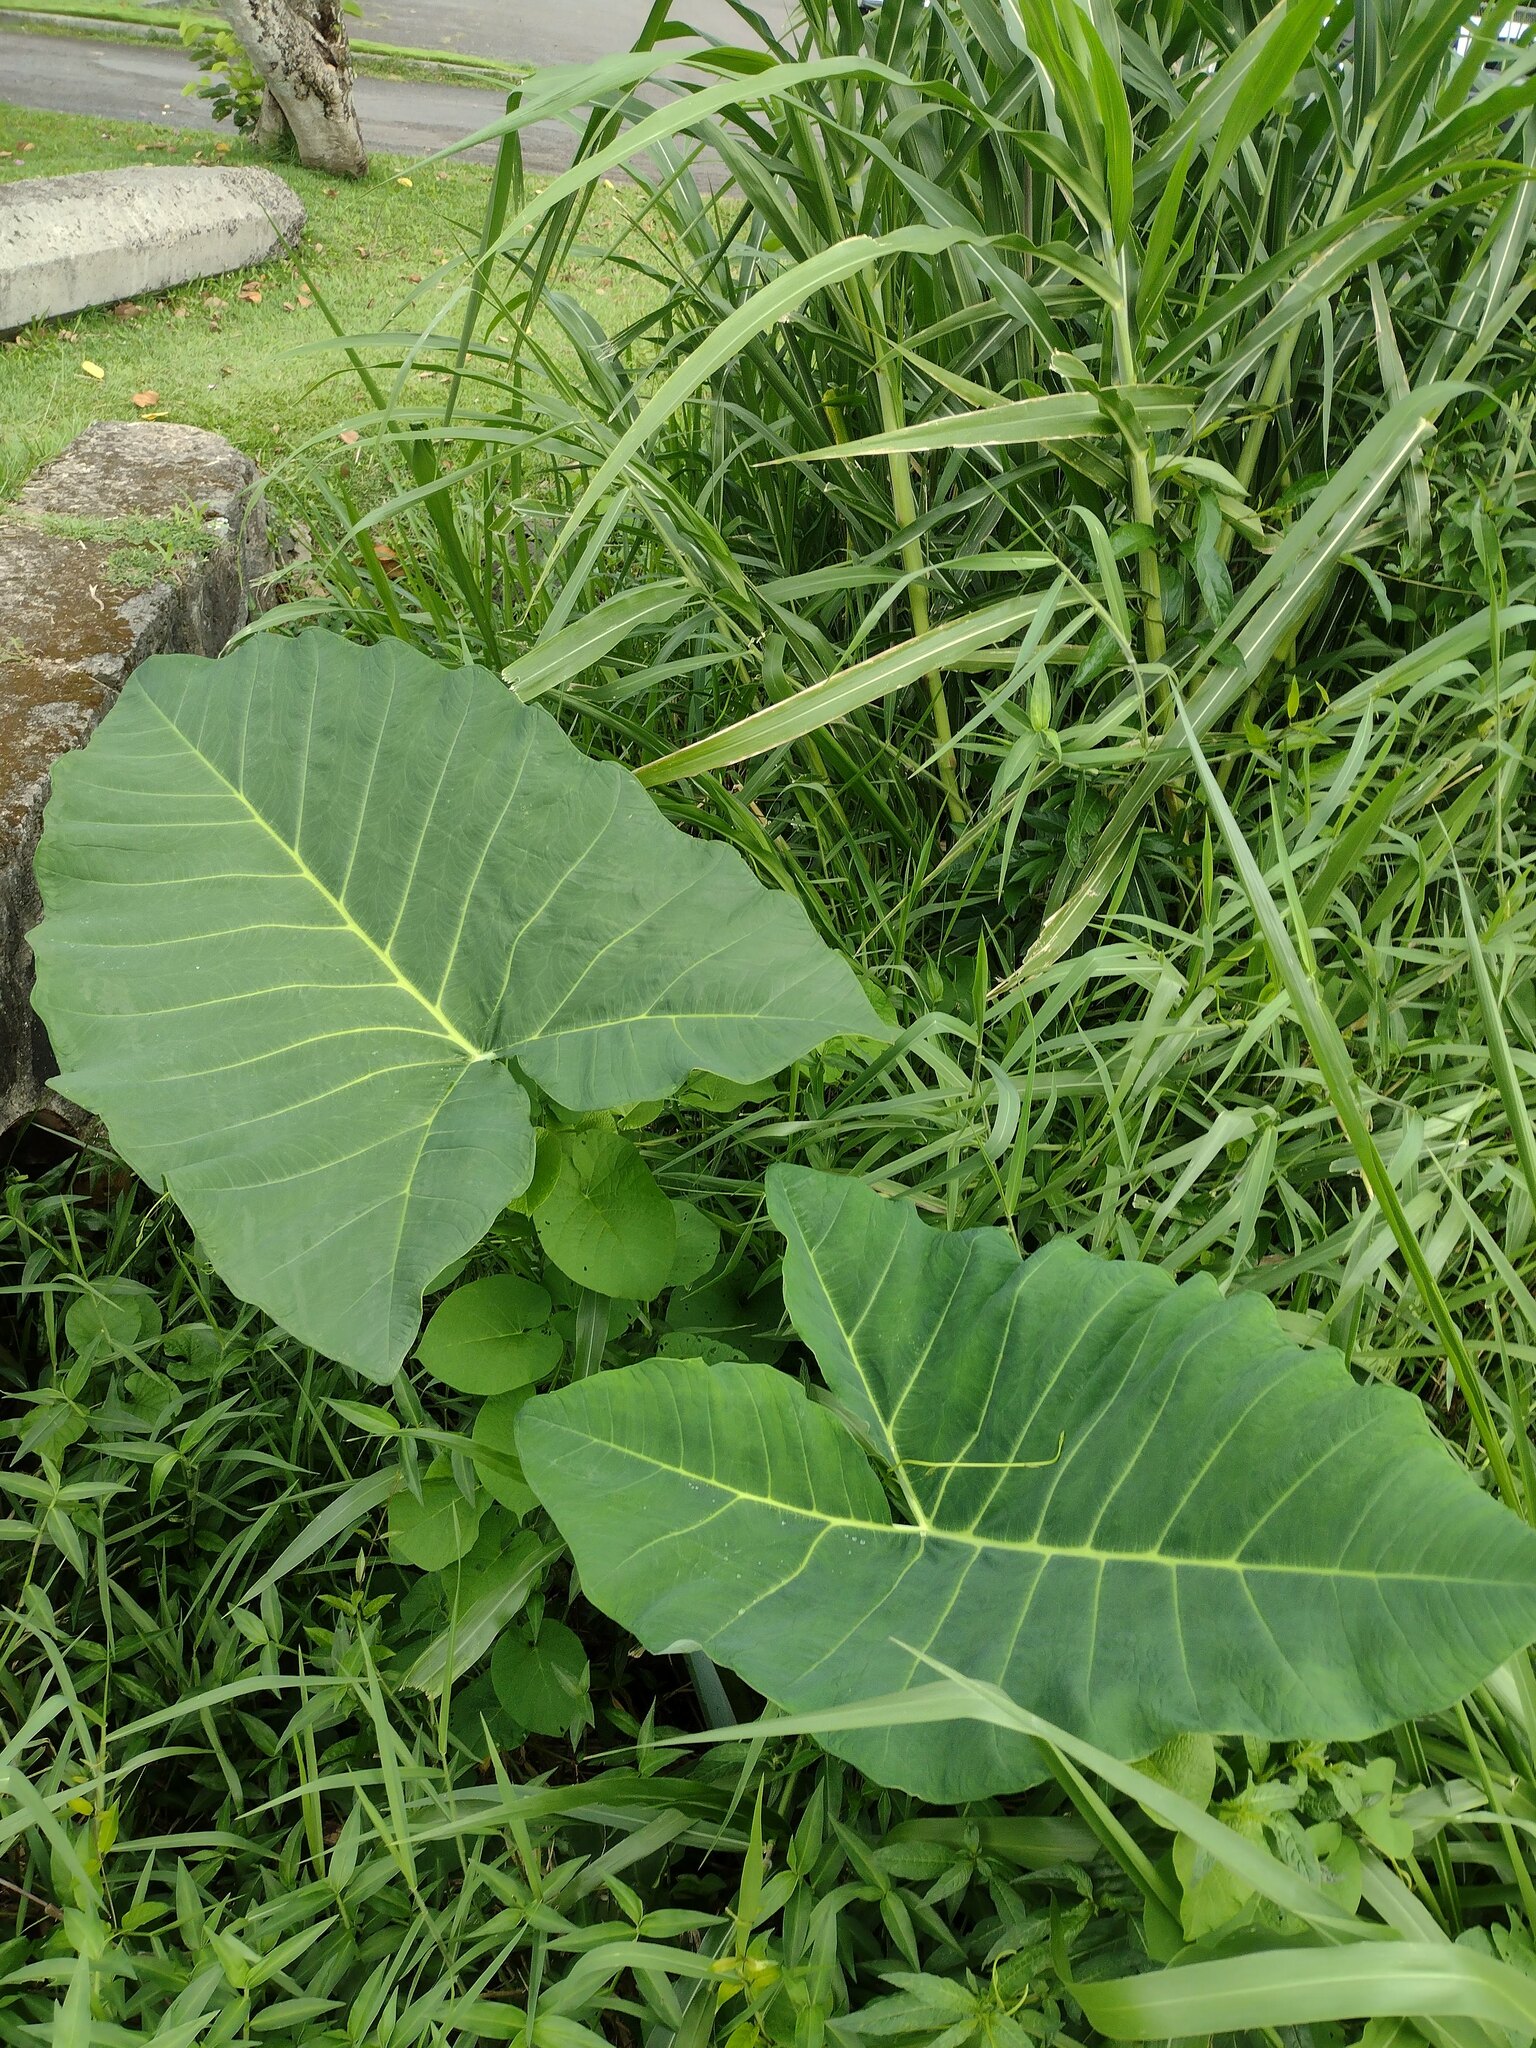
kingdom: Plantae
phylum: Tracheophyta
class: Liliopsida
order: Alismatales
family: Araceae
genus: Xanthosoma
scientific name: Xanthosoma robustum
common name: Capote
